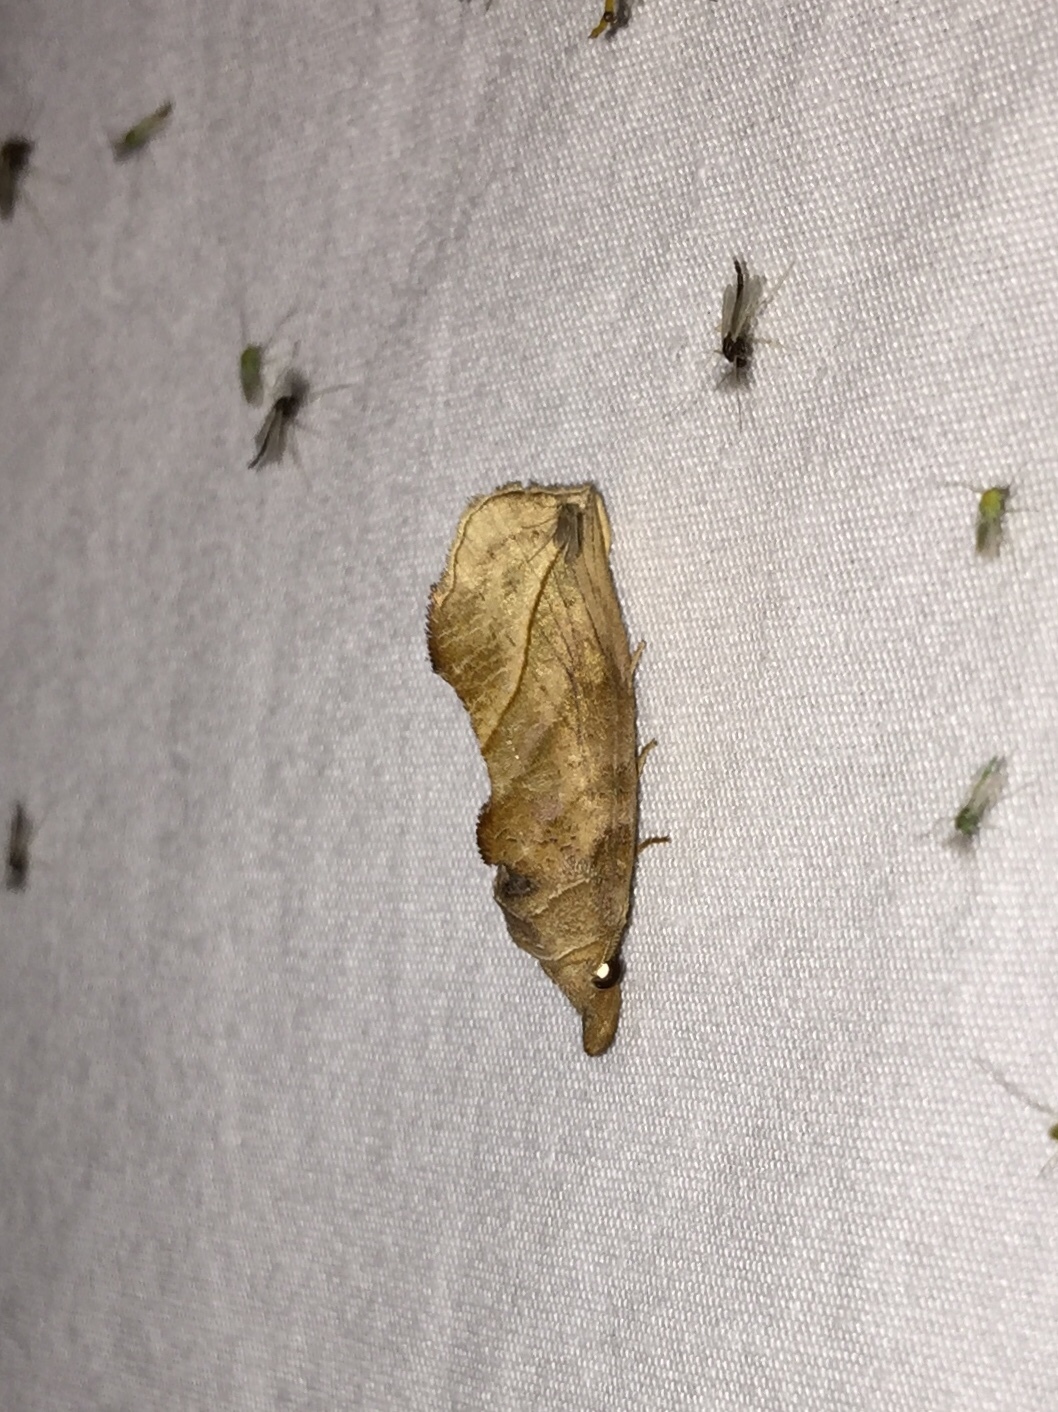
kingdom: Animalia
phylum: Arthropoda
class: Insecta
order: Lepidoptera
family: Erebidae
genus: Calyptra
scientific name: Calyptra canadensis
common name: Canadian owlet
